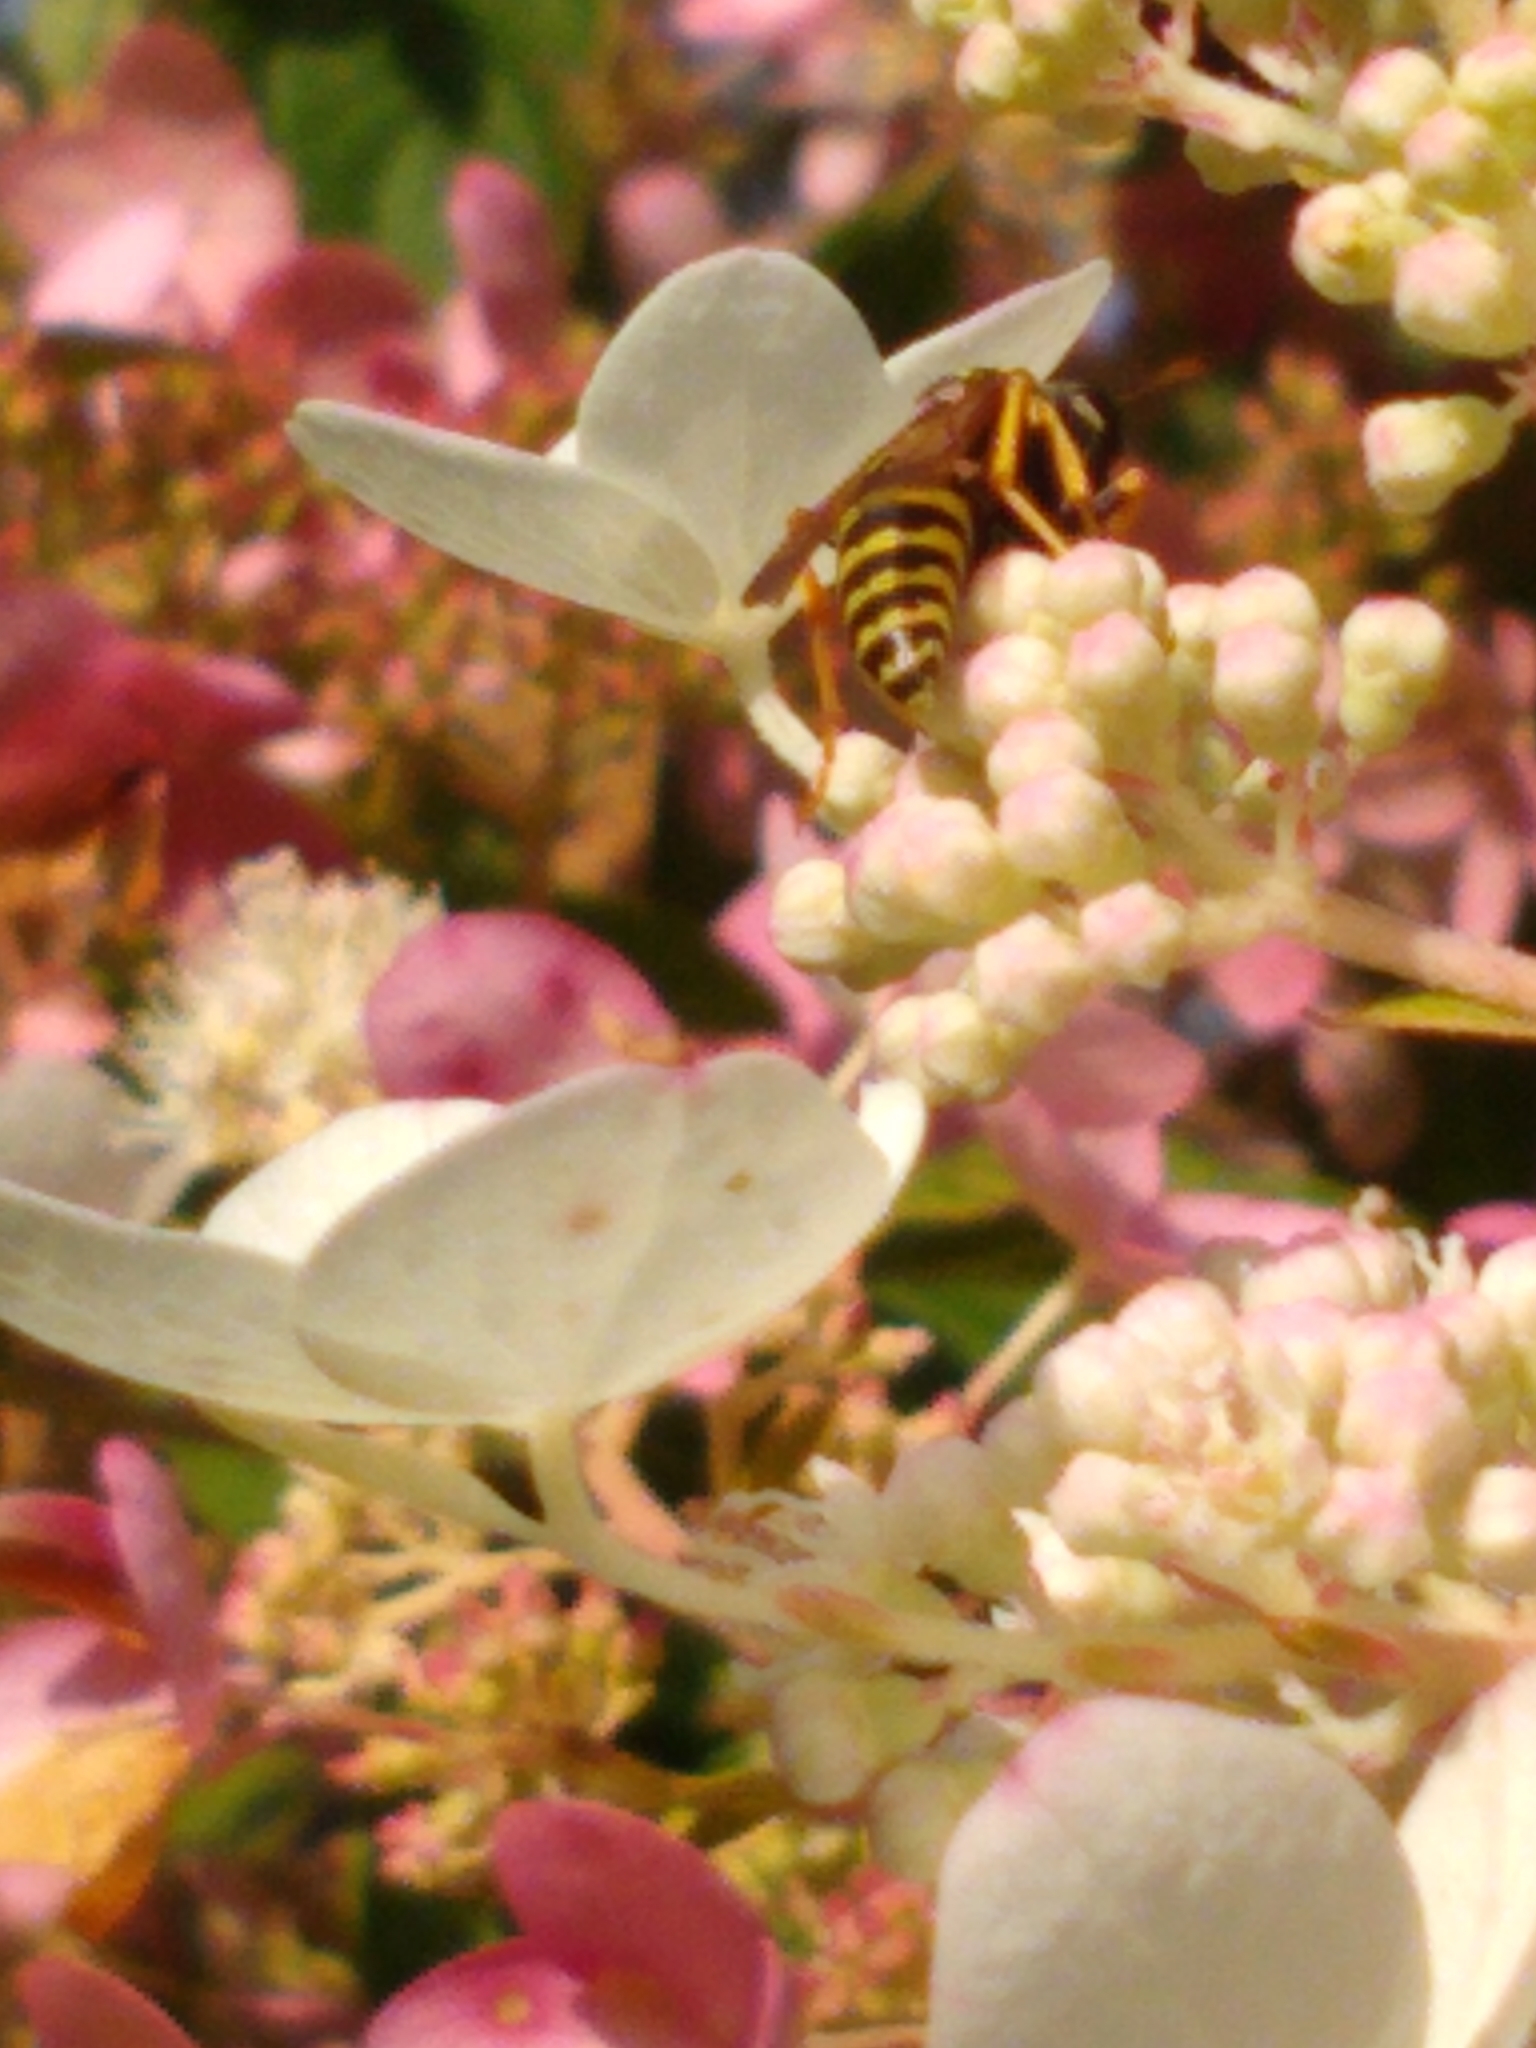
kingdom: Animalia
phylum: Arthropoda
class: Insecta
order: Hymenoptera
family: Eumenidae
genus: Polistes
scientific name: Polistes dominula
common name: Paper wasp
